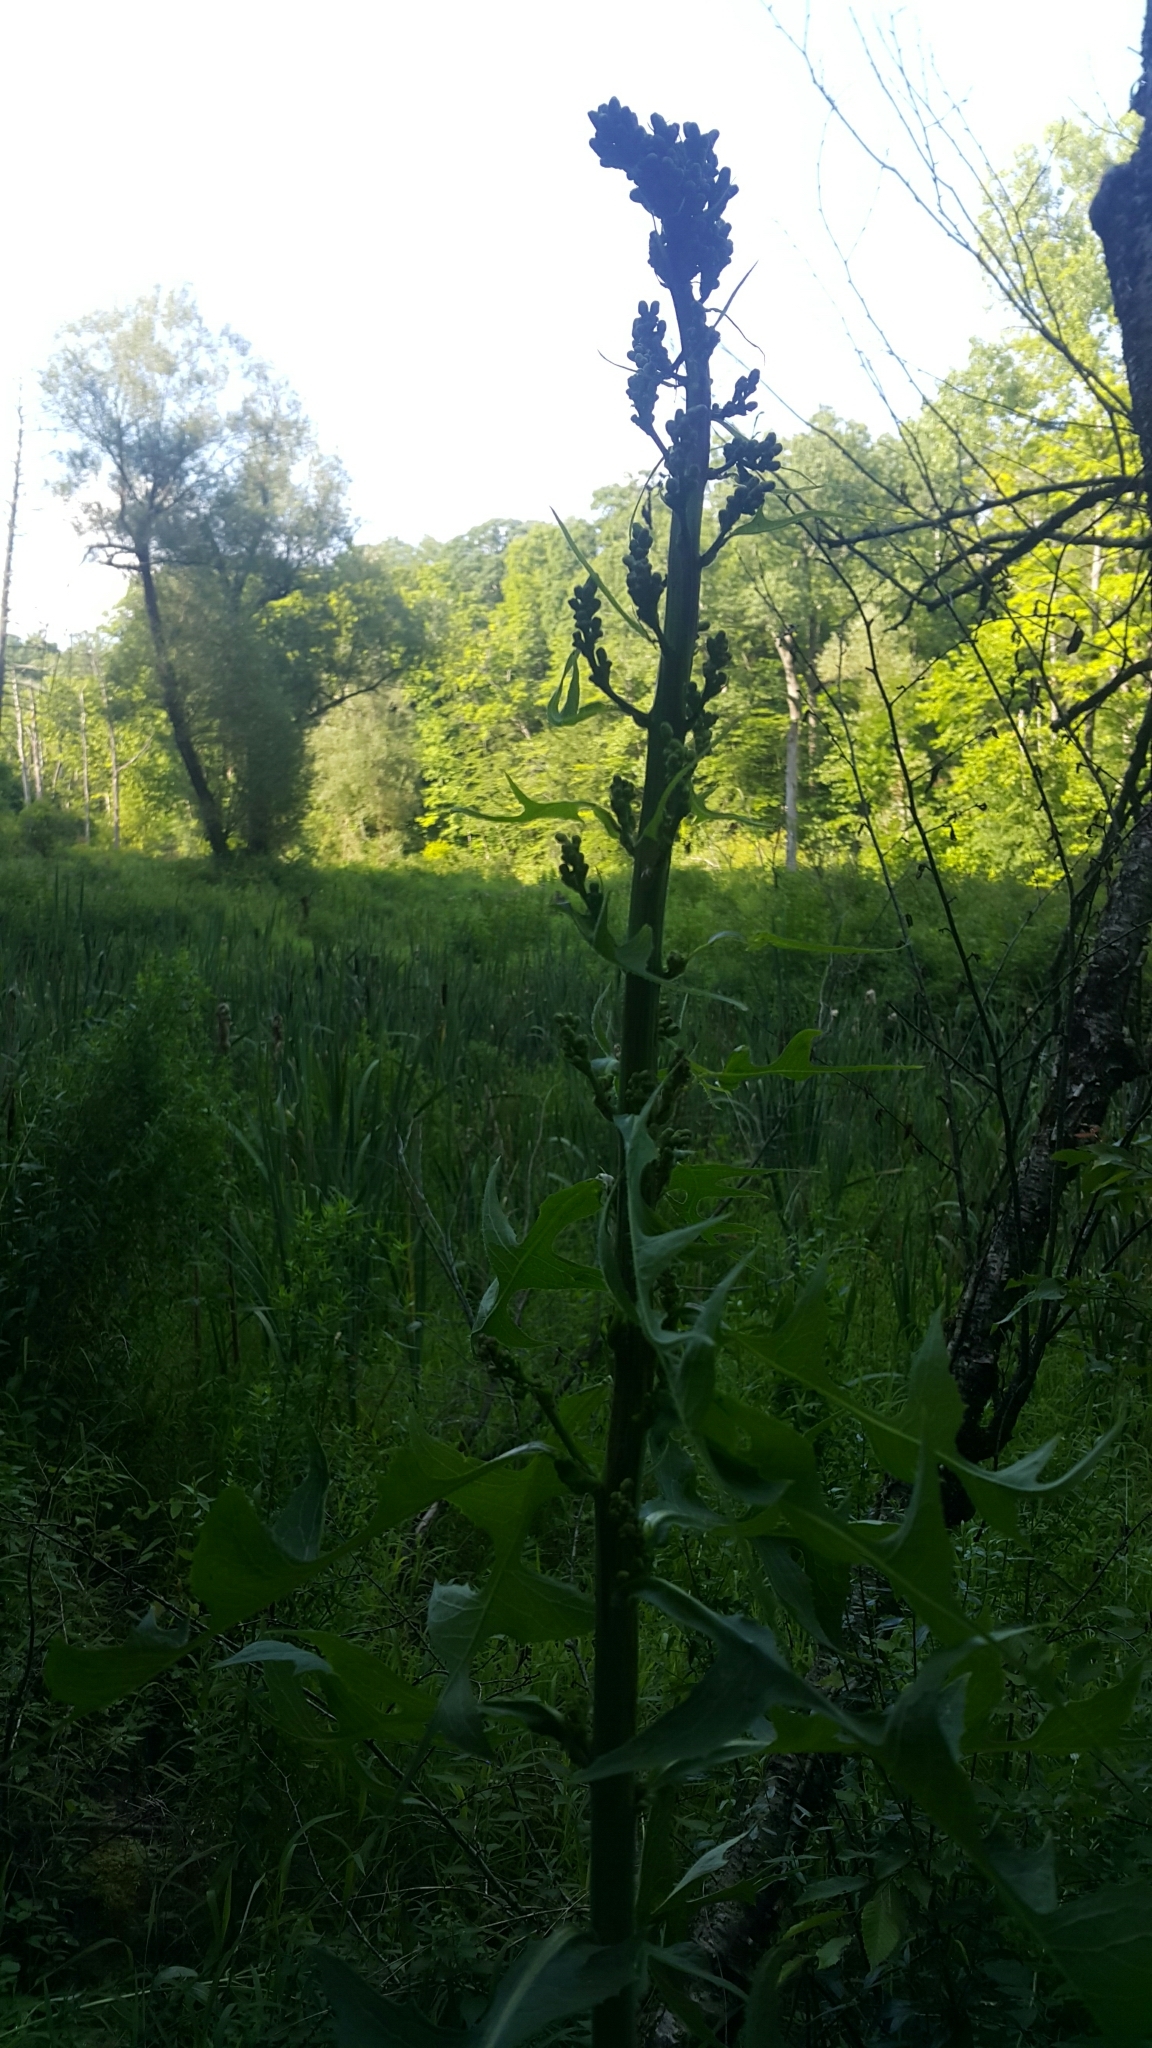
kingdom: Plantae
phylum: Tracheophyta
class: Magnoliopsida
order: Asterales
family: Asteraceae
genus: Lactuca
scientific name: Lactuca biennis
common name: Blue wood lettuce
